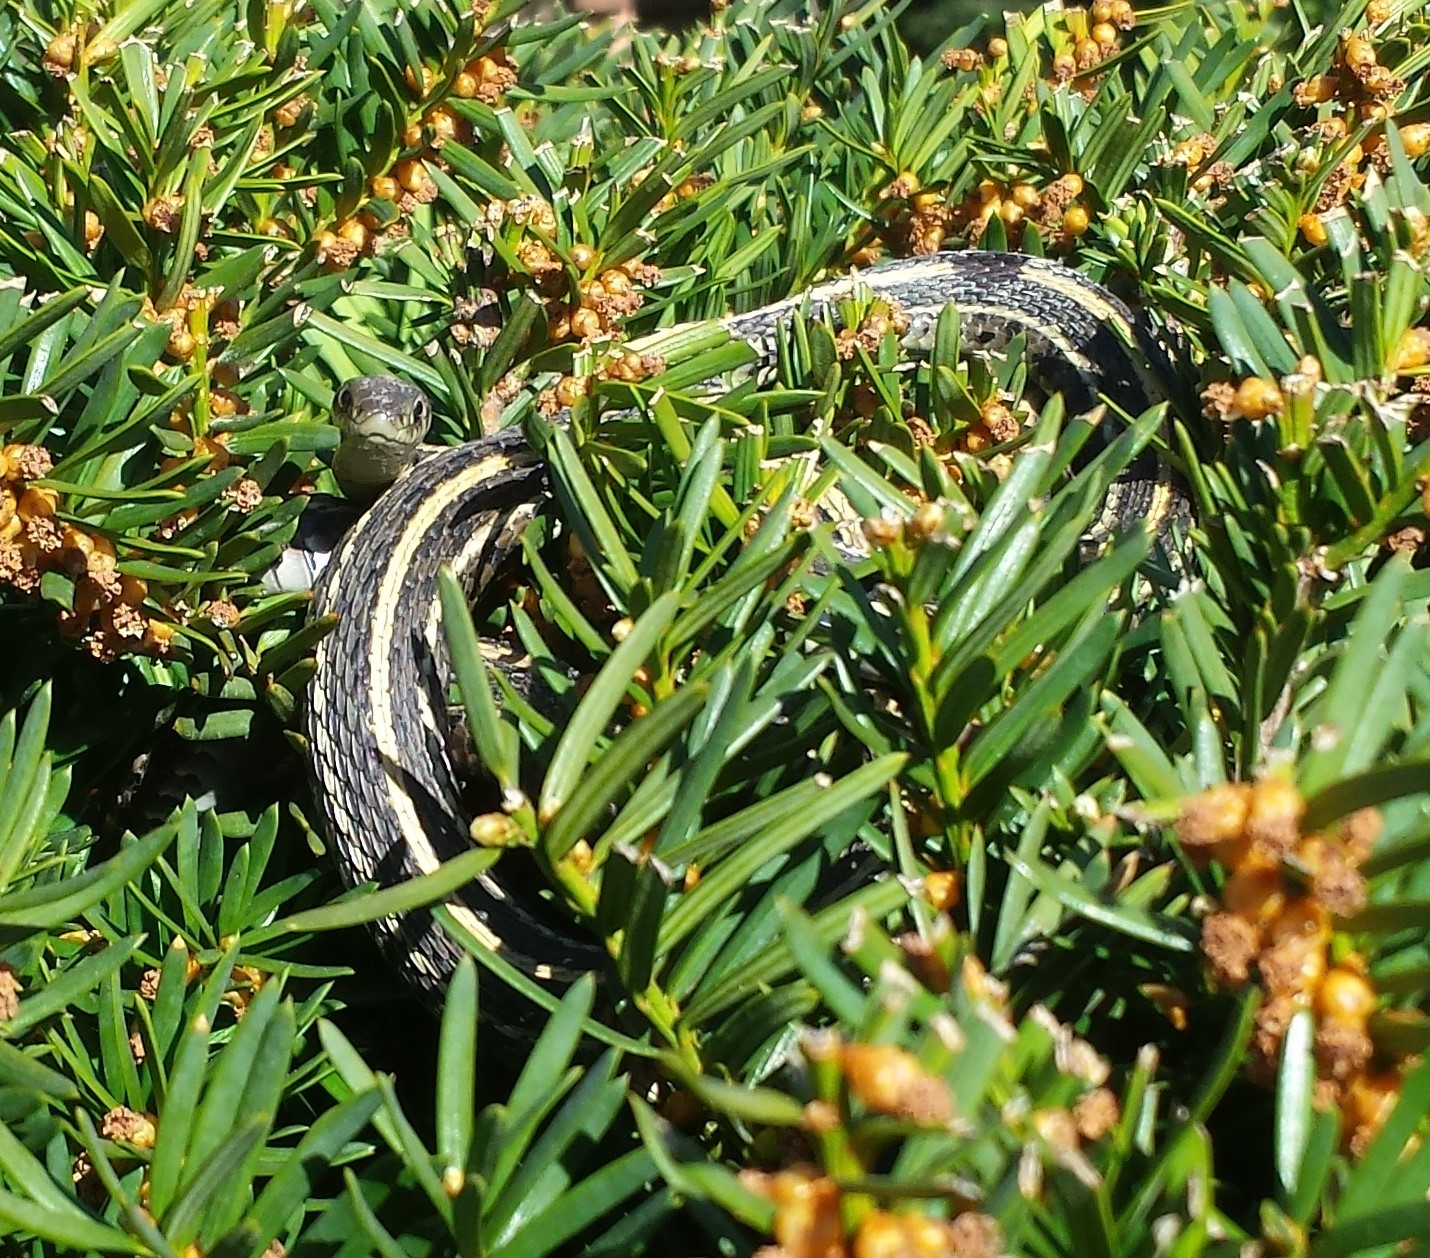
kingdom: Animalia
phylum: Chordata
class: Squamata
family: Colubridae
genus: Thamnophis
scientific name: Thamnophis radix
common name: Plains garter snake
